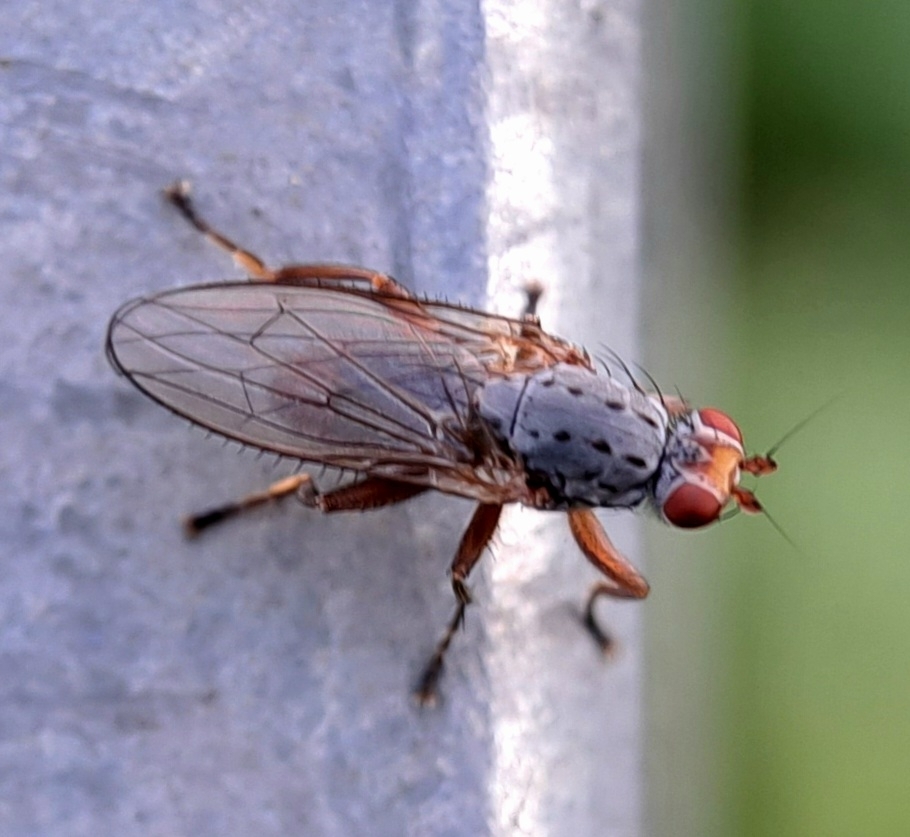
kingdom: Animalia
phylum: Arthropoda
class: Insecta
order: Diptera
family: Heleomyzidae
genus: Amoebaleria
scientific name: Amoebaleria caesia
